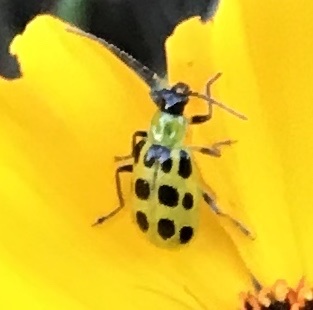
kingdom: Animalia
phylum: Arthropoda
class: Insecta
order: Coleoptera
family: Chrysomelidae
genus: Diabrotica
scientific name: Diabrotica undecimpunctata
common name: Spotted cucumber beetle
